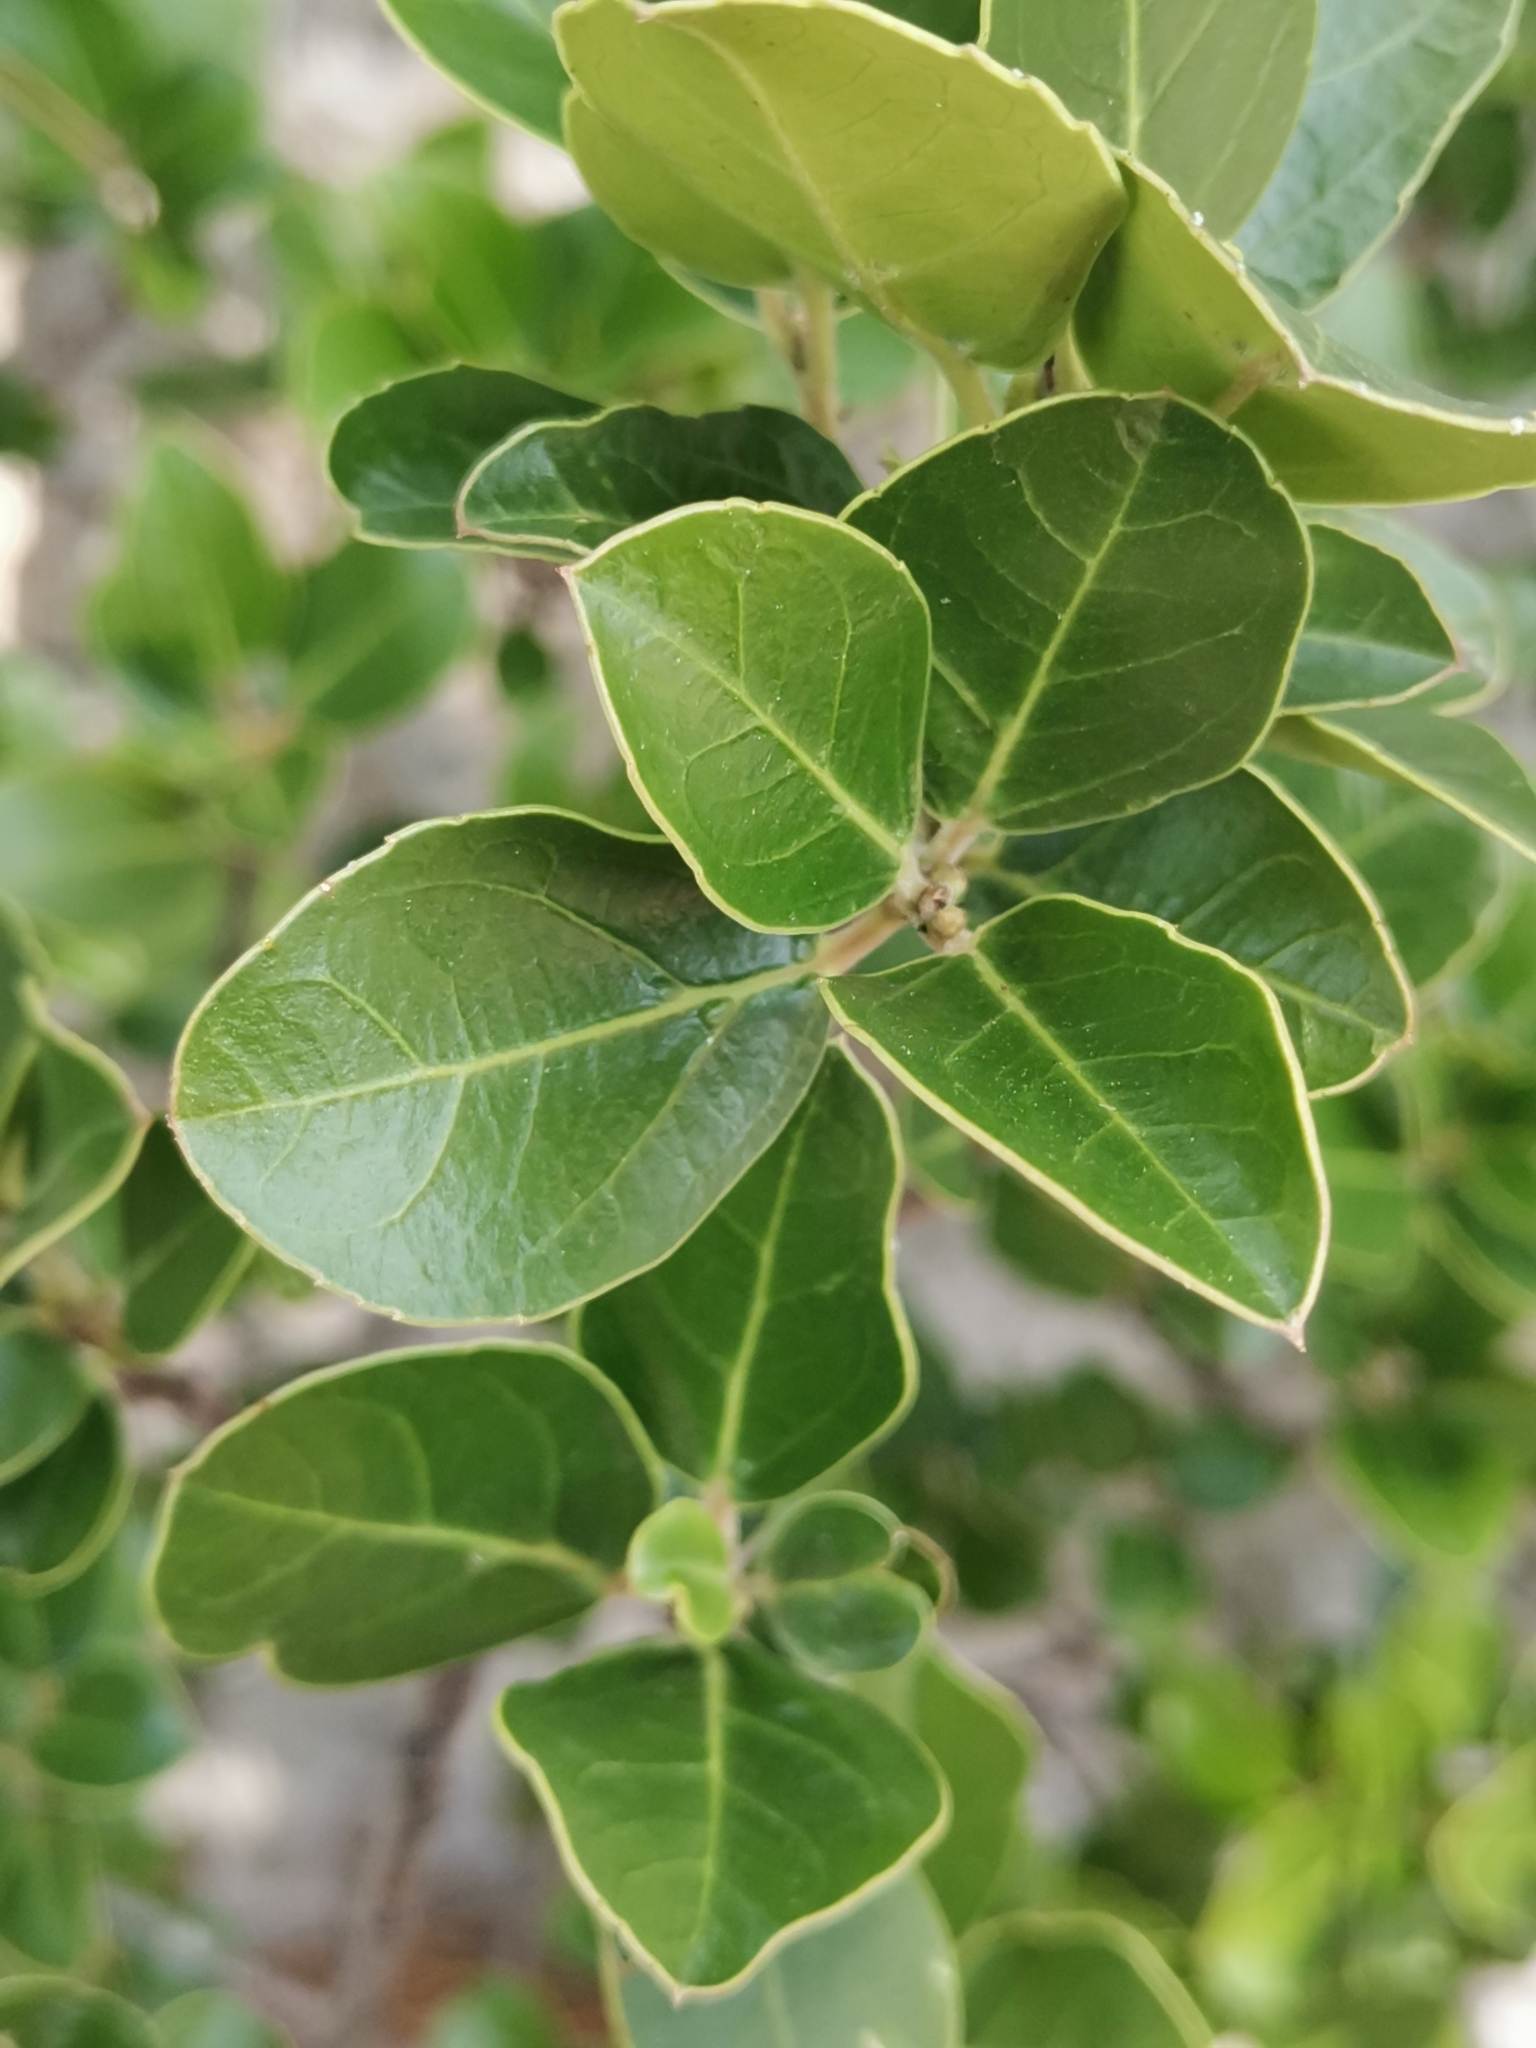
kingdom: Plantae
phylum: Tracheophyta
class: Magnoliopsida
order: Rosales
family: Rhamnaceae
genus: Rhamnus
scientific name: Rhamnus alaternus
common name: Mediterranean buckthorn
